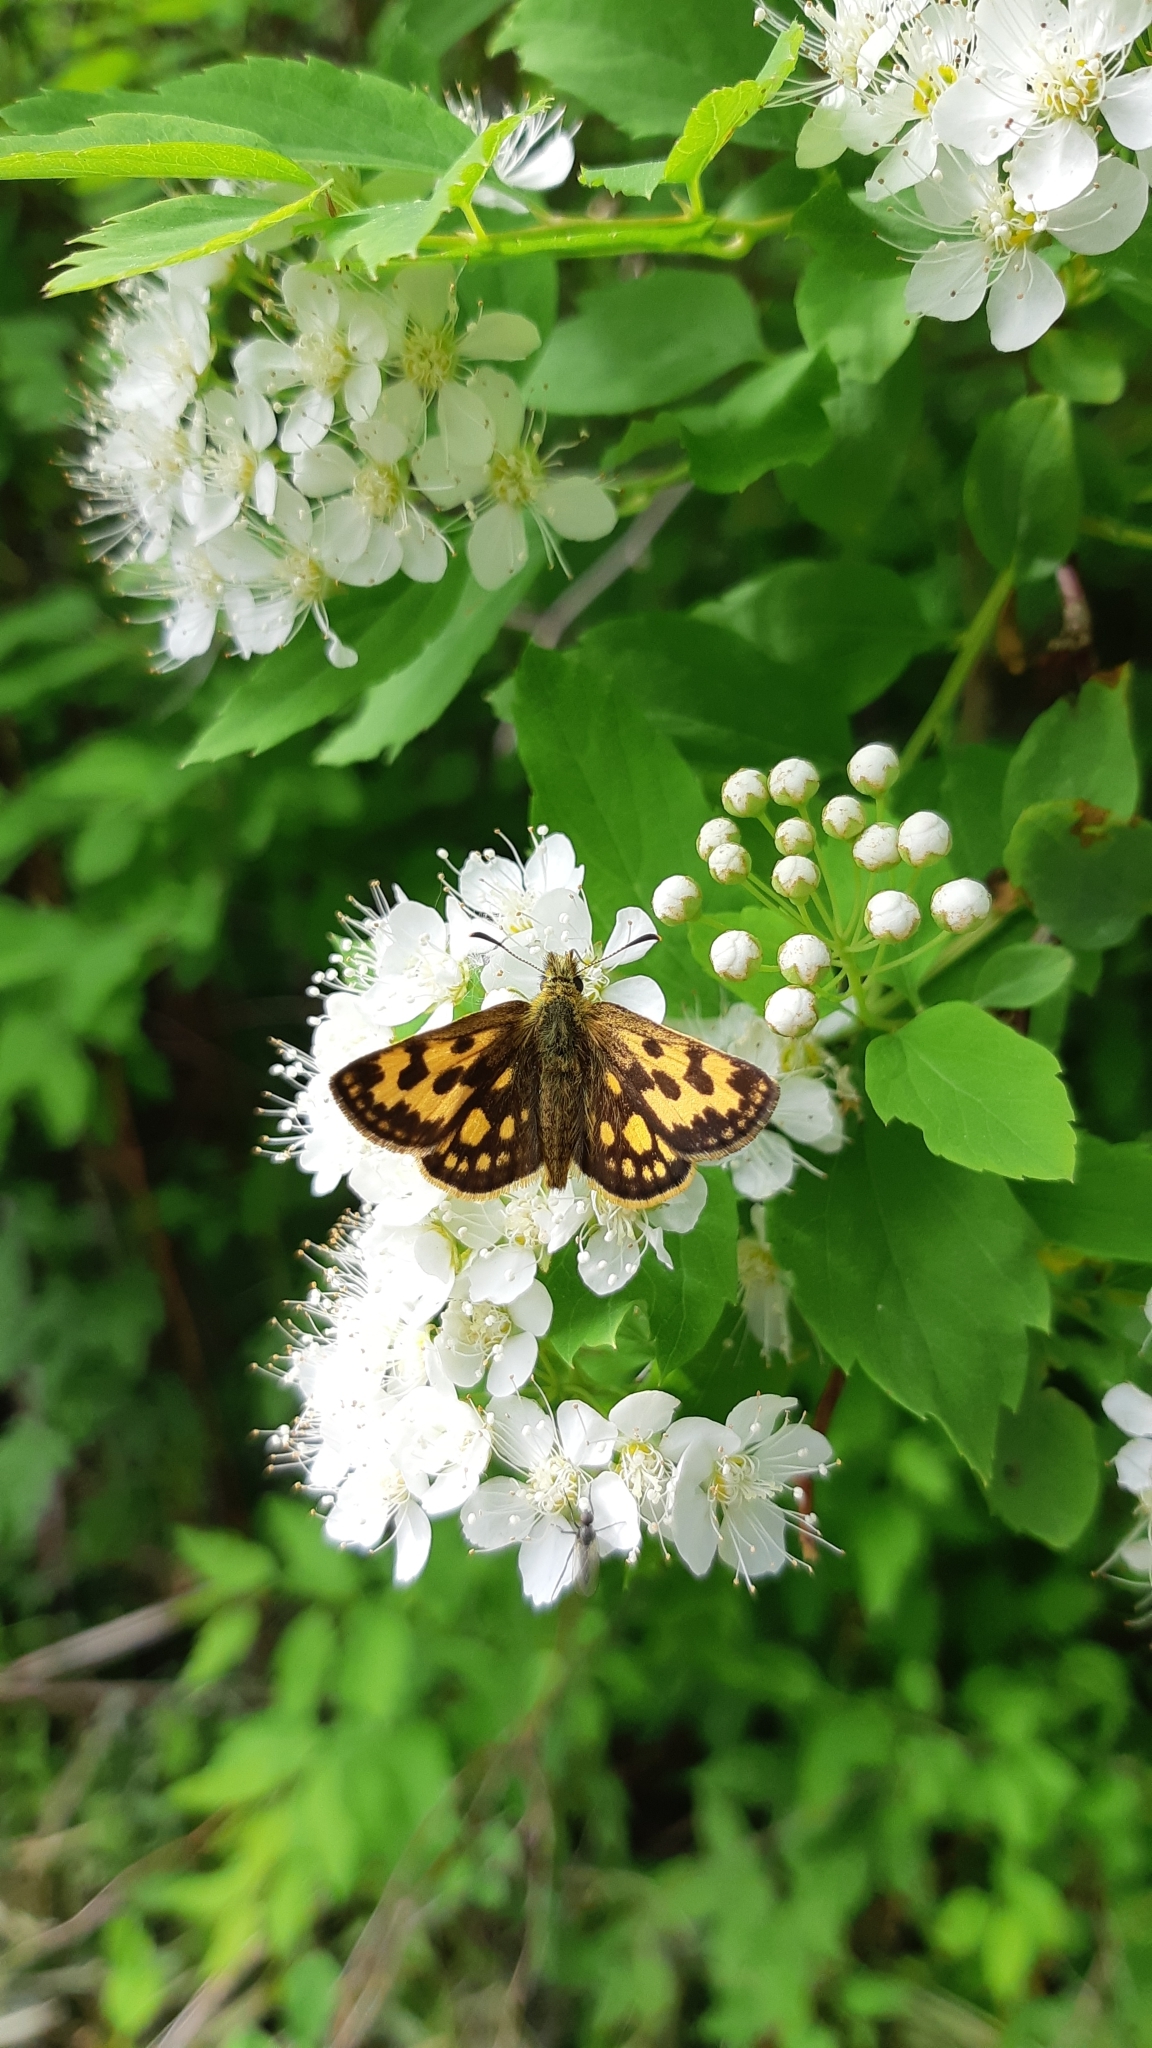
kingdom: Animalia
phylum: Arthropoda
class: Insecta
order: Lepidoptera
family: Hesperiidae
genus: Carterocephalus
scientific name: Carterocephalus silvicola
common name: Northern chequered skipper
